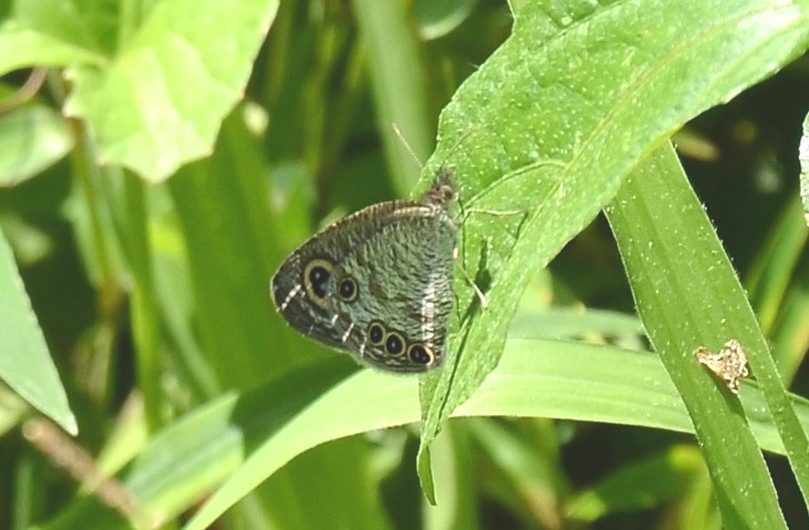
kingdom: Animalia
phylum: Arthropoda
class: Insecta
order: Lepidoptera
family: Nymphalidae
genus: Ypthima
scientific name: Ypthima huebneri
